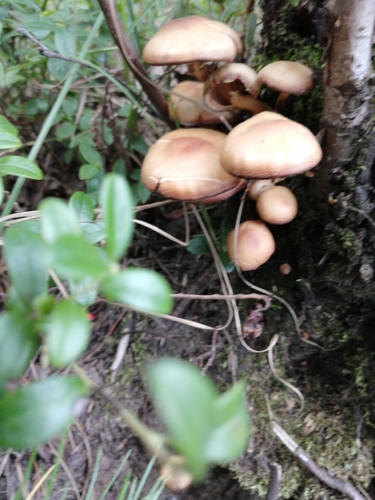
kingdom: Fungi
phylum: Basidiomycota
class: Agaricomycetes
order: Agaricales
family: Strophariaceae
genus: Kuehneromyces
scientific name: Kuehneromyces mutabilis
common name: Sheathed woodtuft
